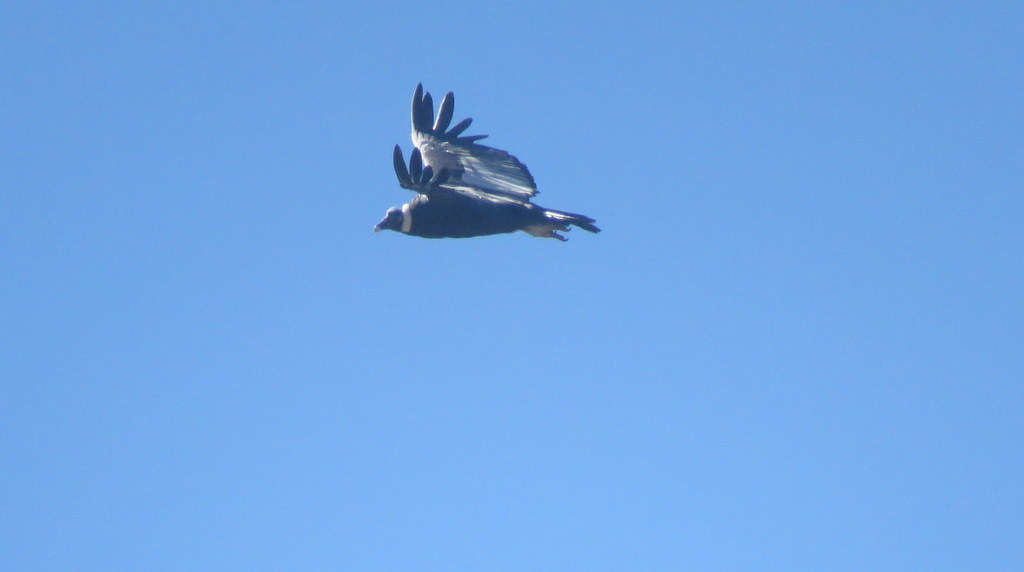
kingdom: Animalia
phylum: Chordata
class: Aves
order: Accipitriformes
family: Cathartidae
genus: Vultur
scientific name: Vultur gryphus
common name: Andean condor
